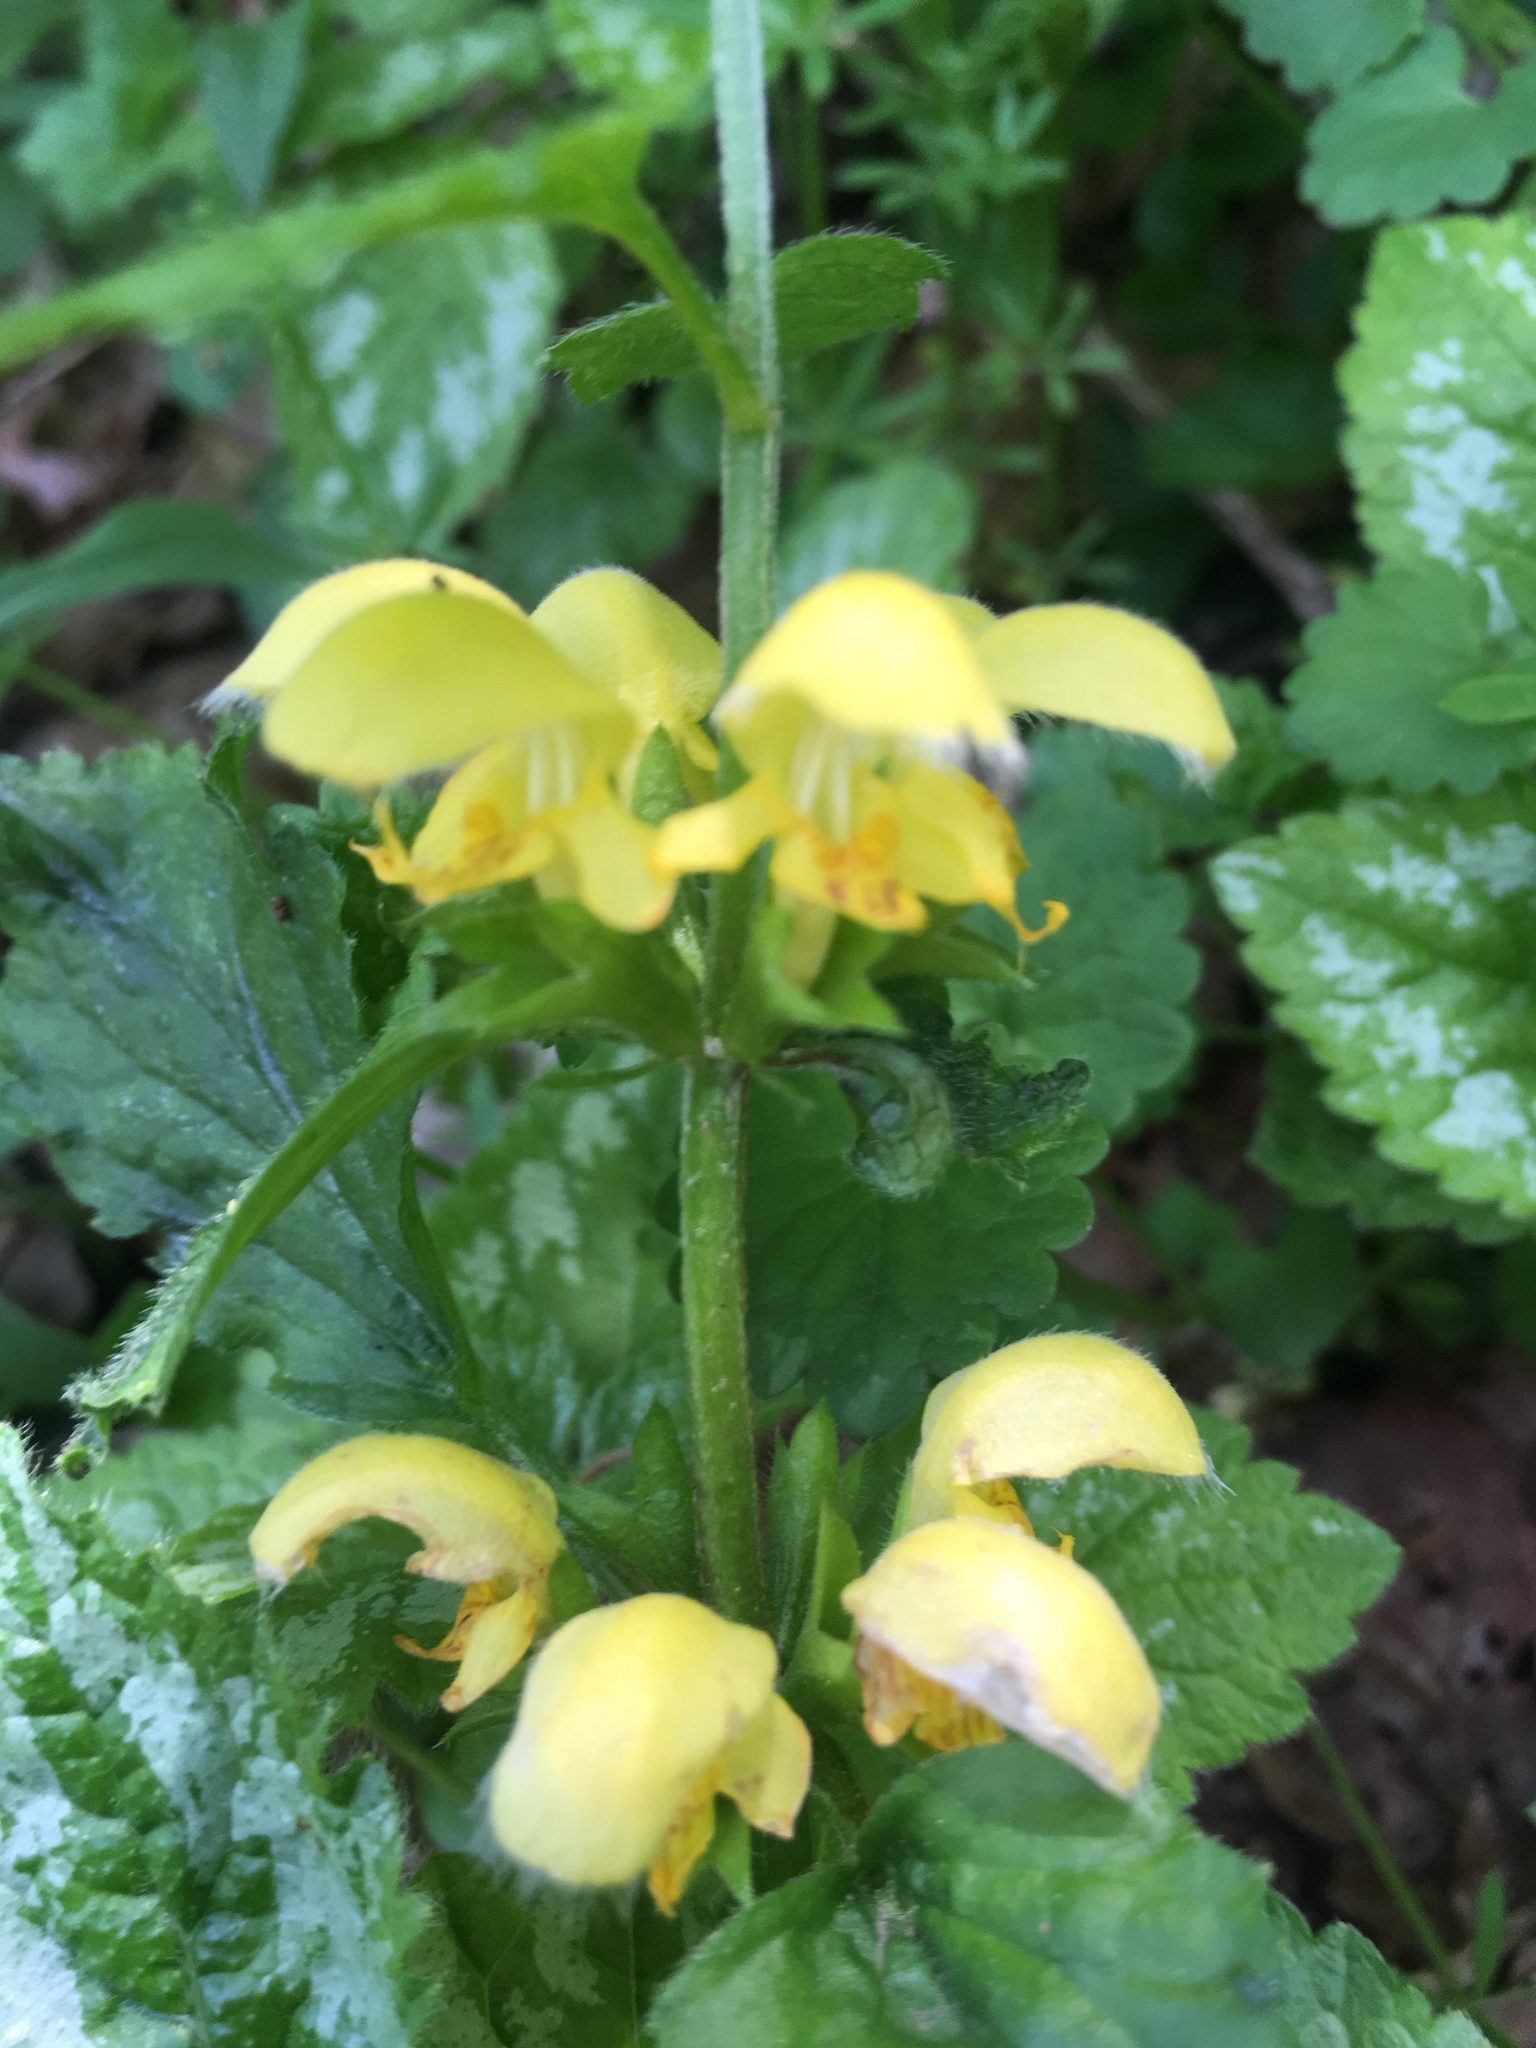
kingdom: Plantae
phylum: Tracheophyta
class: Magnoliopsida
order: Lamiales
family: Lamiaceae
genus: Lamium
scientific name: Lamium galeobdolon
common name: Yellow archangel
